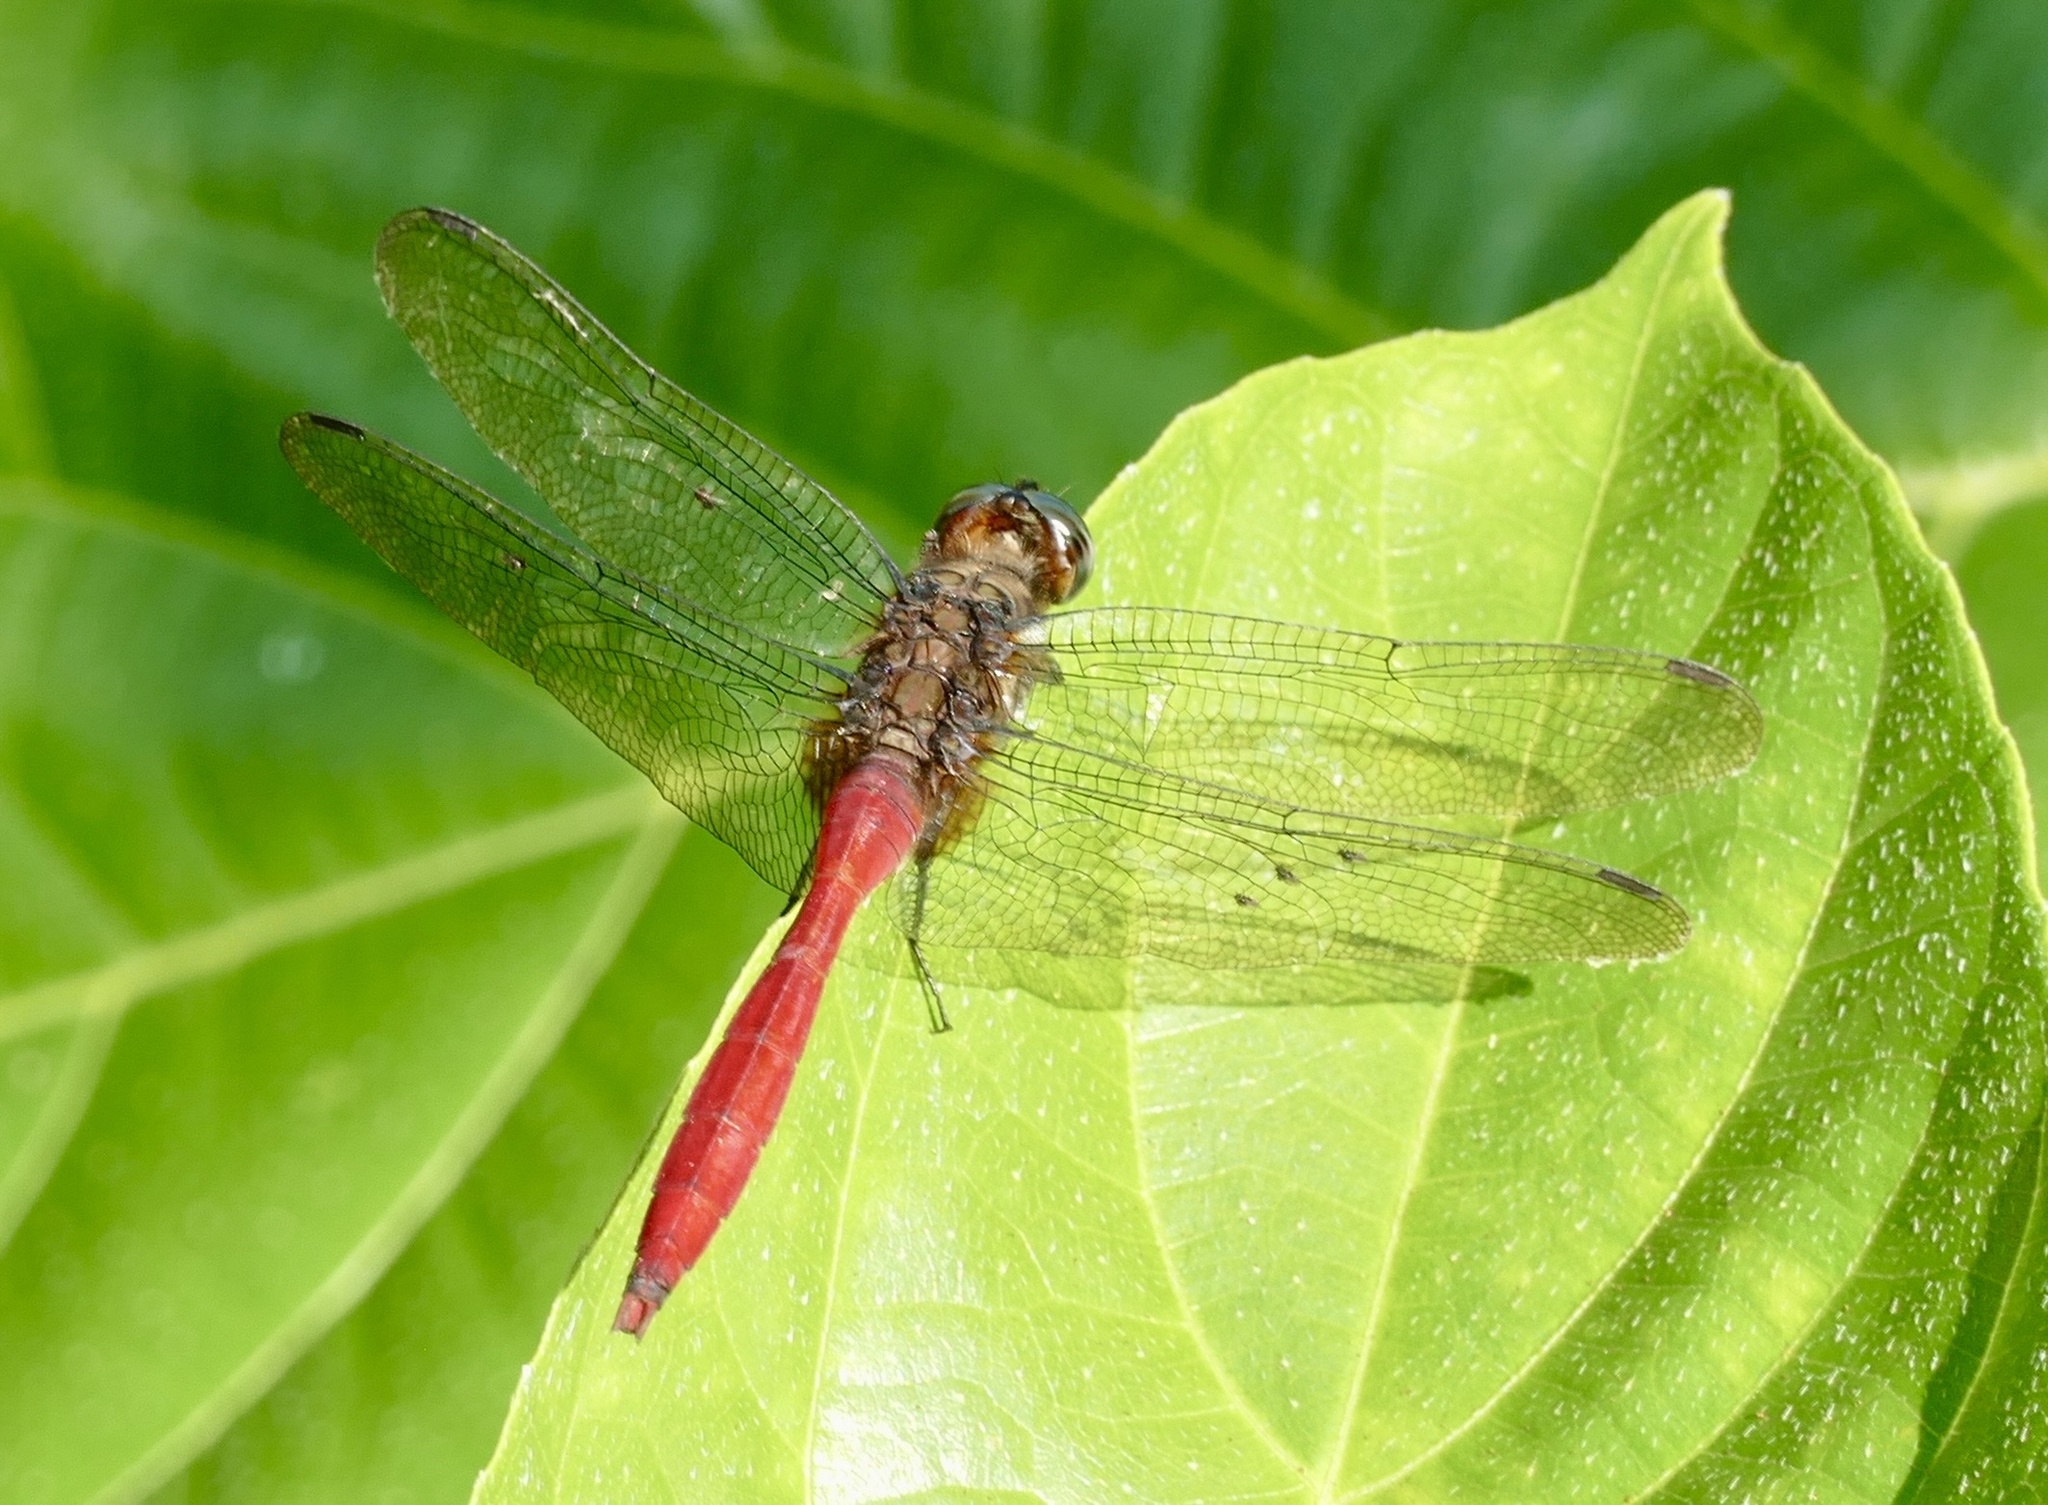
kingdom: Animalia
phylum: Arthropoda
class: Insecta
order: Odonata
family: Libellulidae
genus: Orthetrum
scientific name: Orthetrum villosovittatum
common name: Firery skimmer
